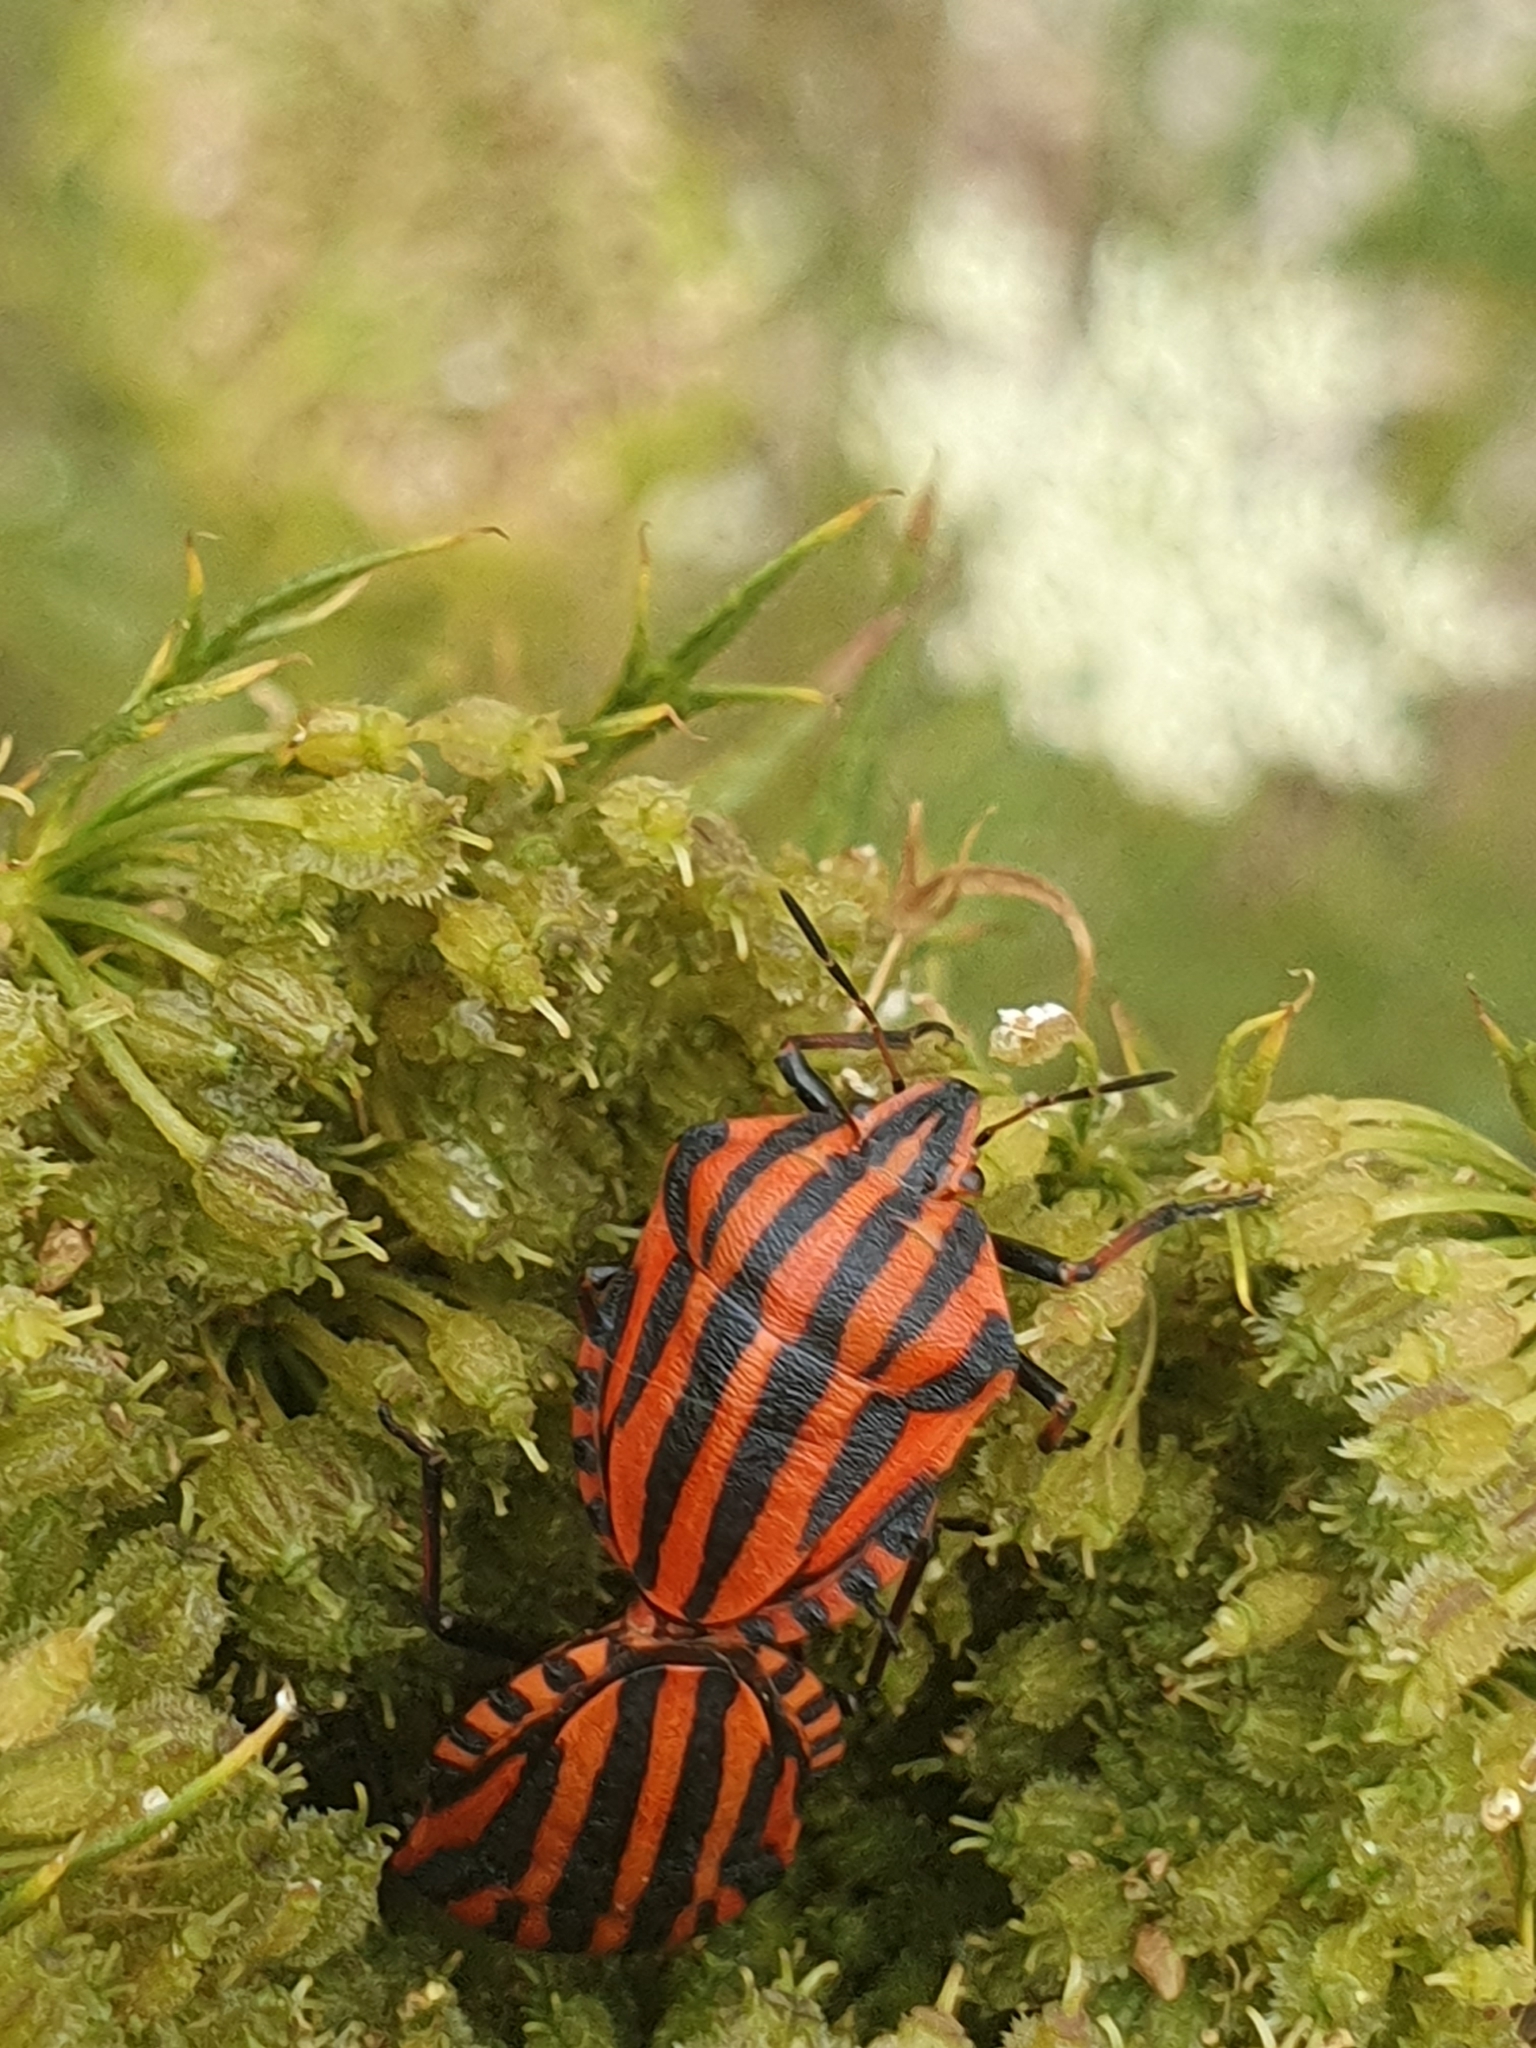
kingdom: Animalia
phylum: Arthropoda
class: Insecta
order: Hemiptera
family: Pentatomidae
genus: Graphosoma
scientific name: Graphosoma italicum
